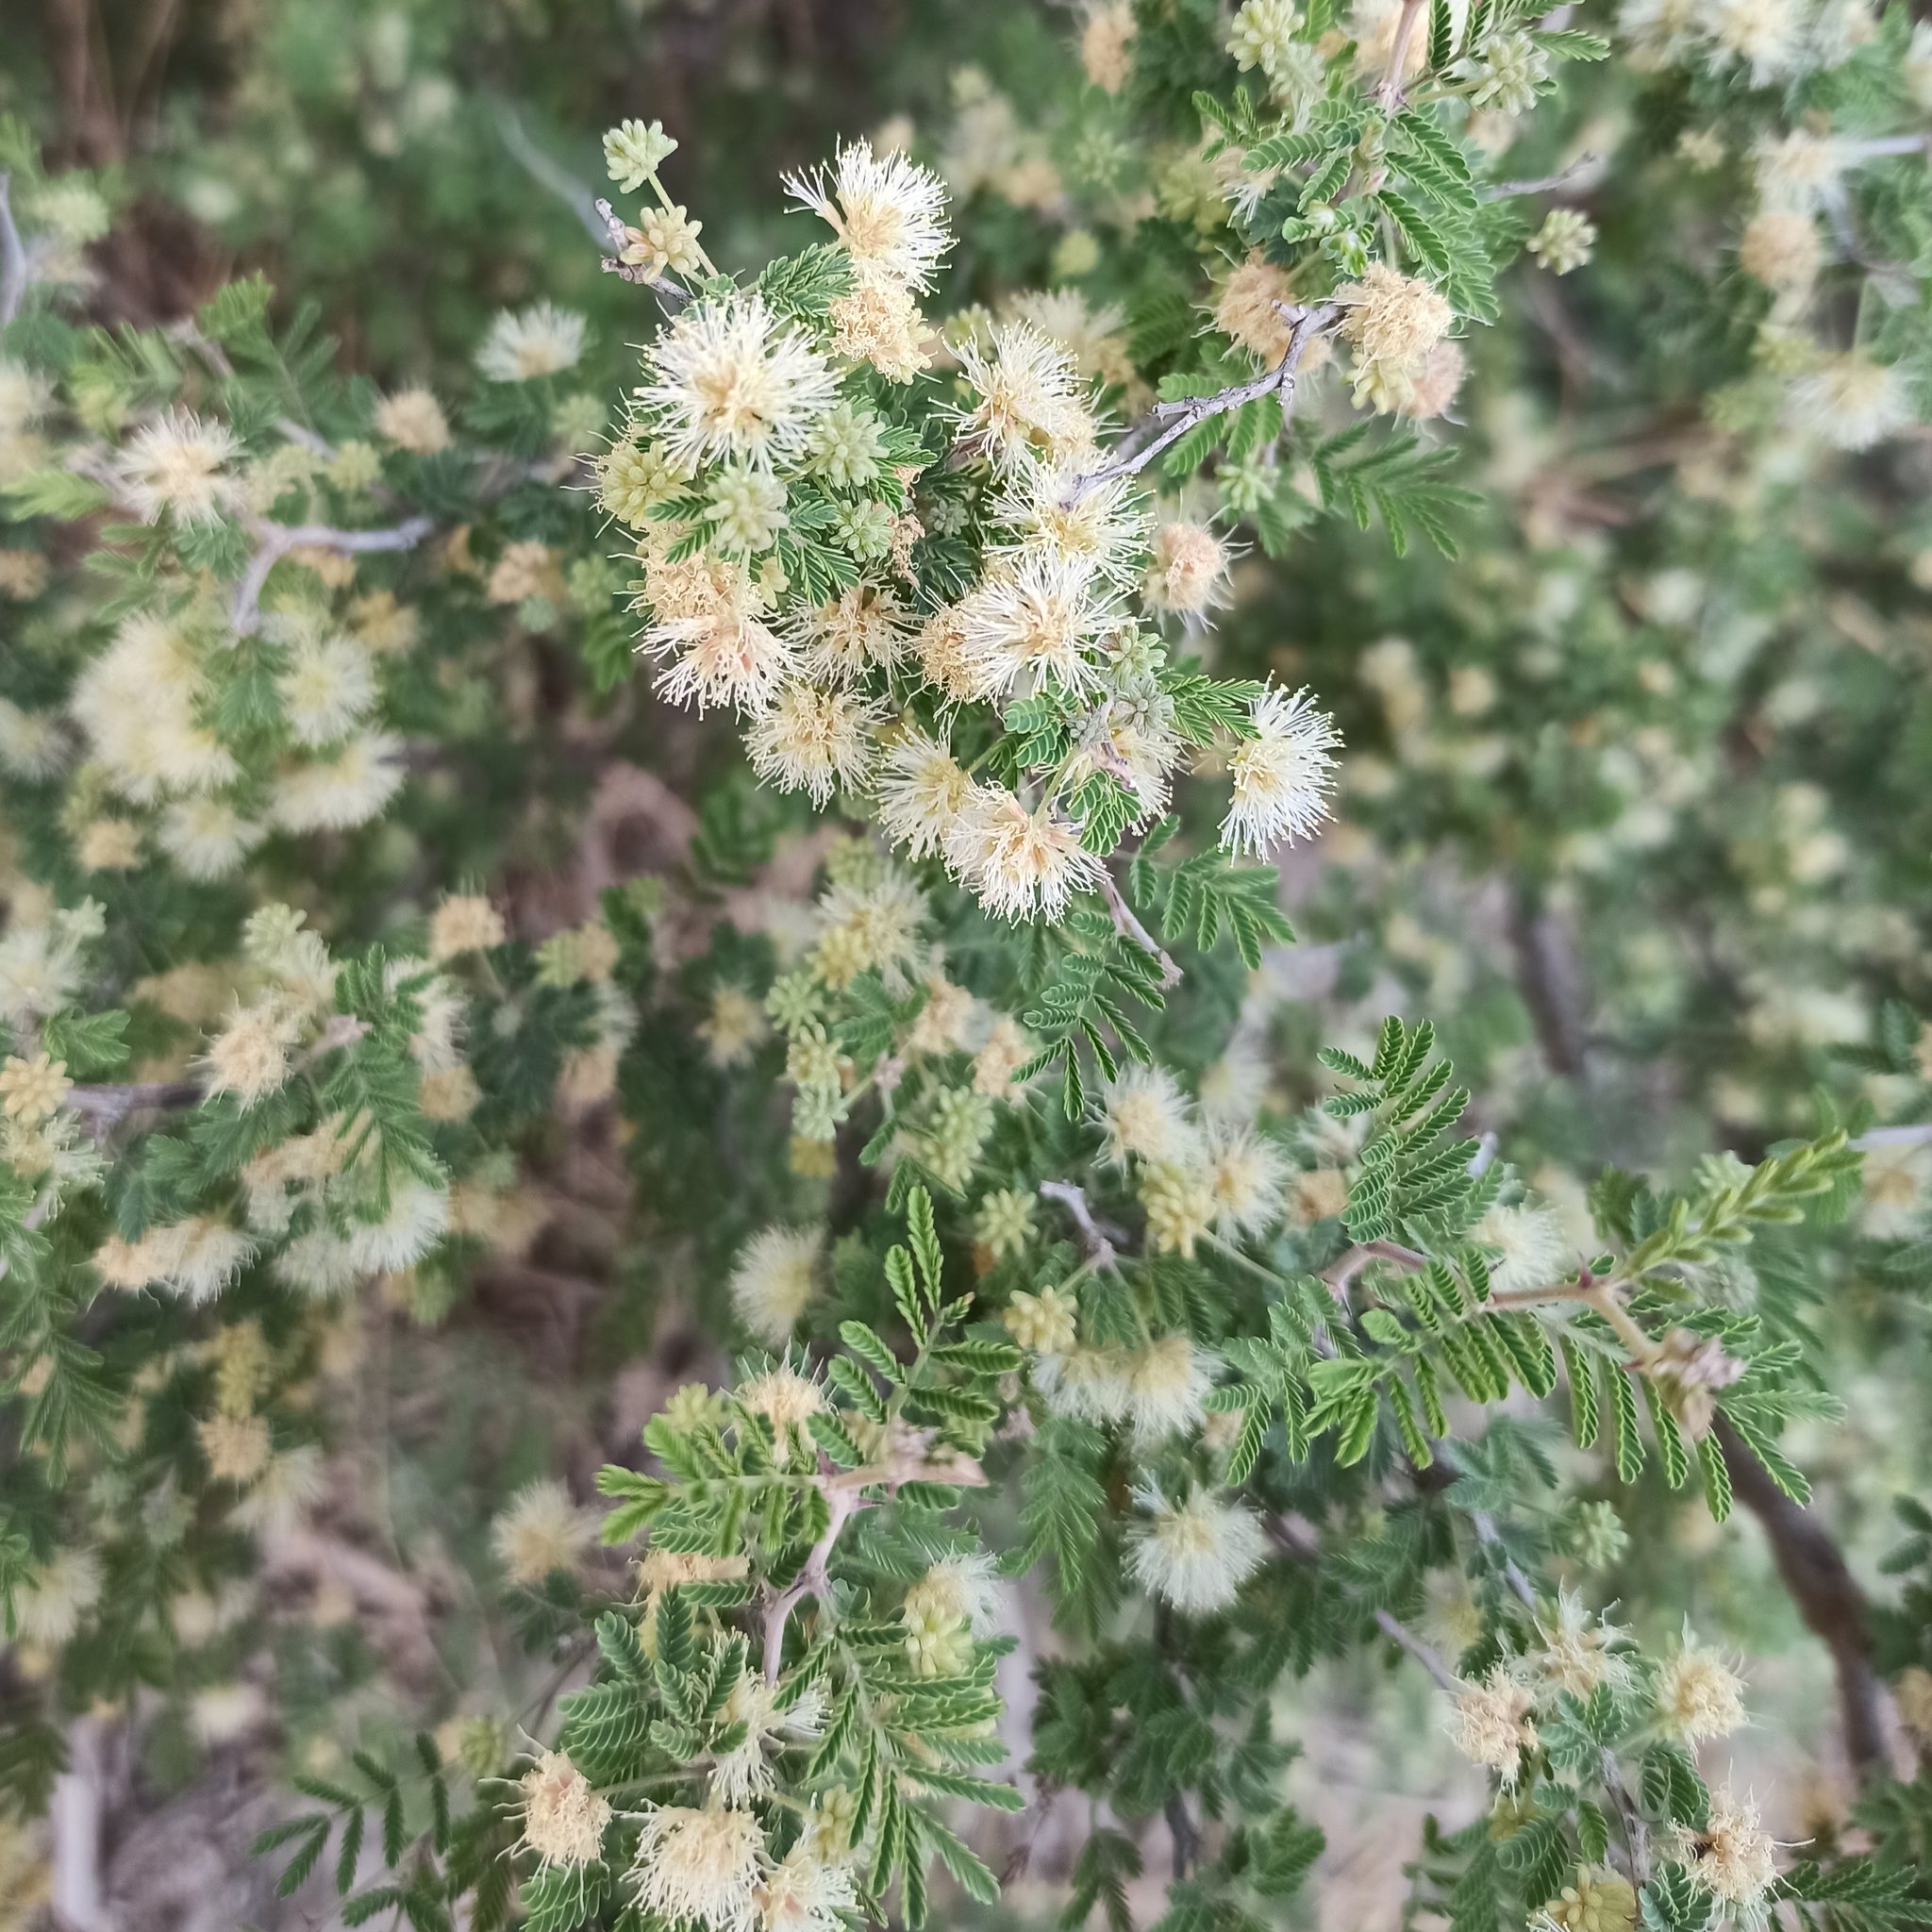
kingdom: Plantae
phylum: Tracheophyta
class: Magnoliopsida
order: Fabales
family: Fabaceae
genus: Mimosa
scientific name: Mimosa aculeaticarpa
